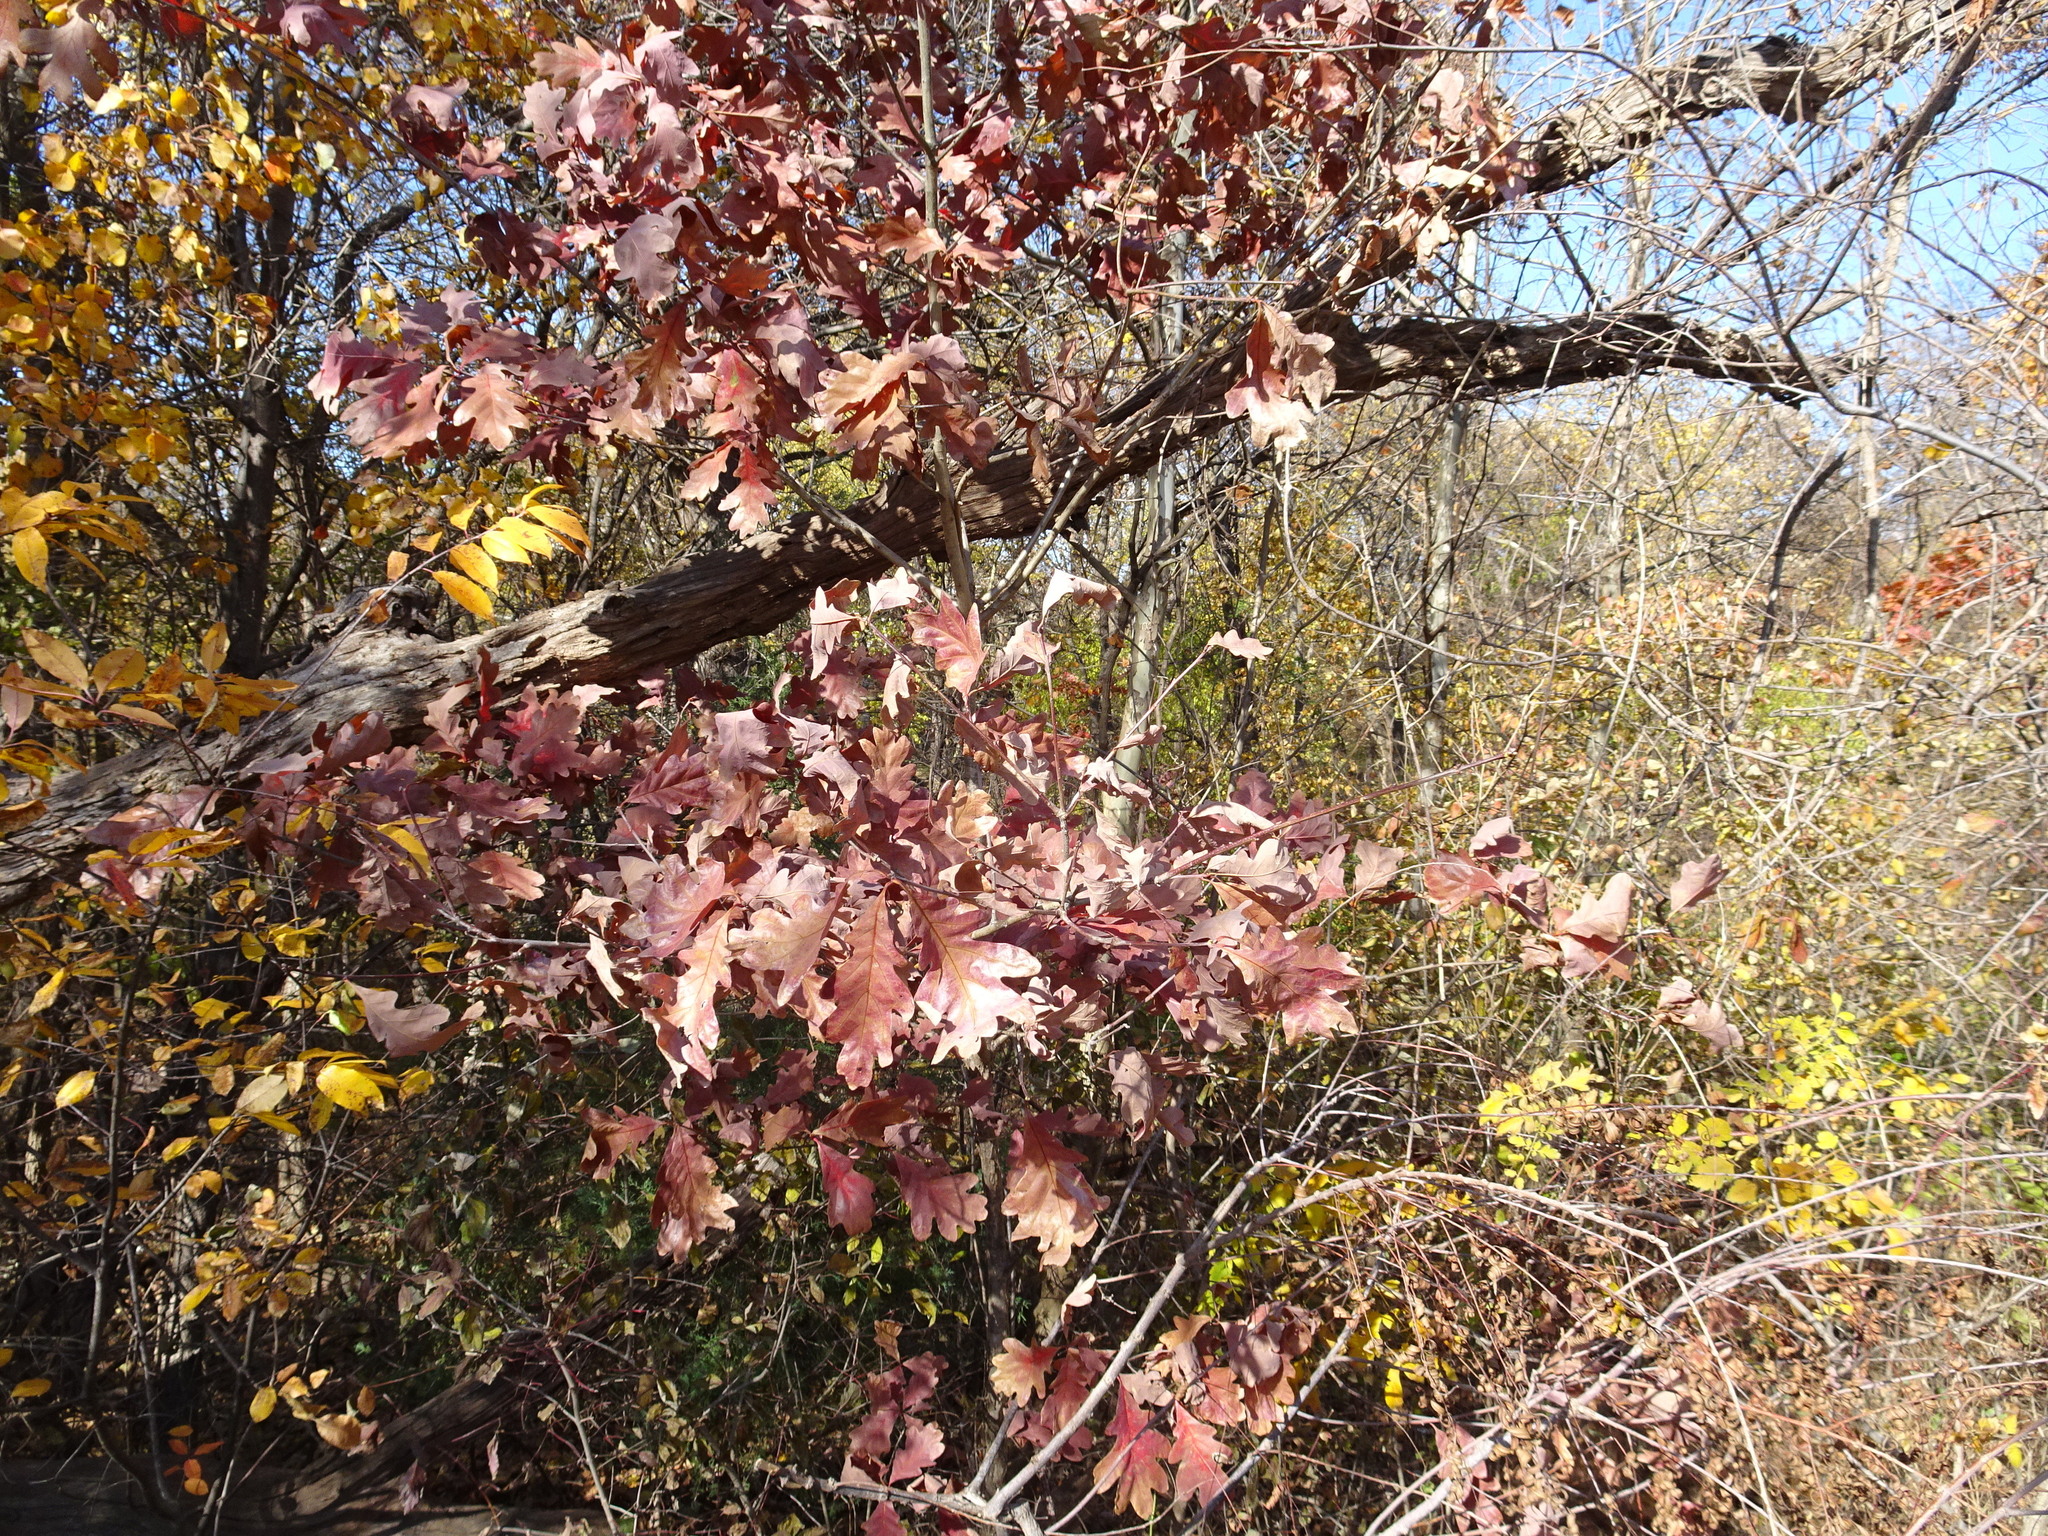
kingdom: Plantae
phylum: Tracheophyta
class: Magnoliopsida
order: Fagales
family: Fagaceae
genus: Quercus
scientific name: Quercus alba
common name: White oak
